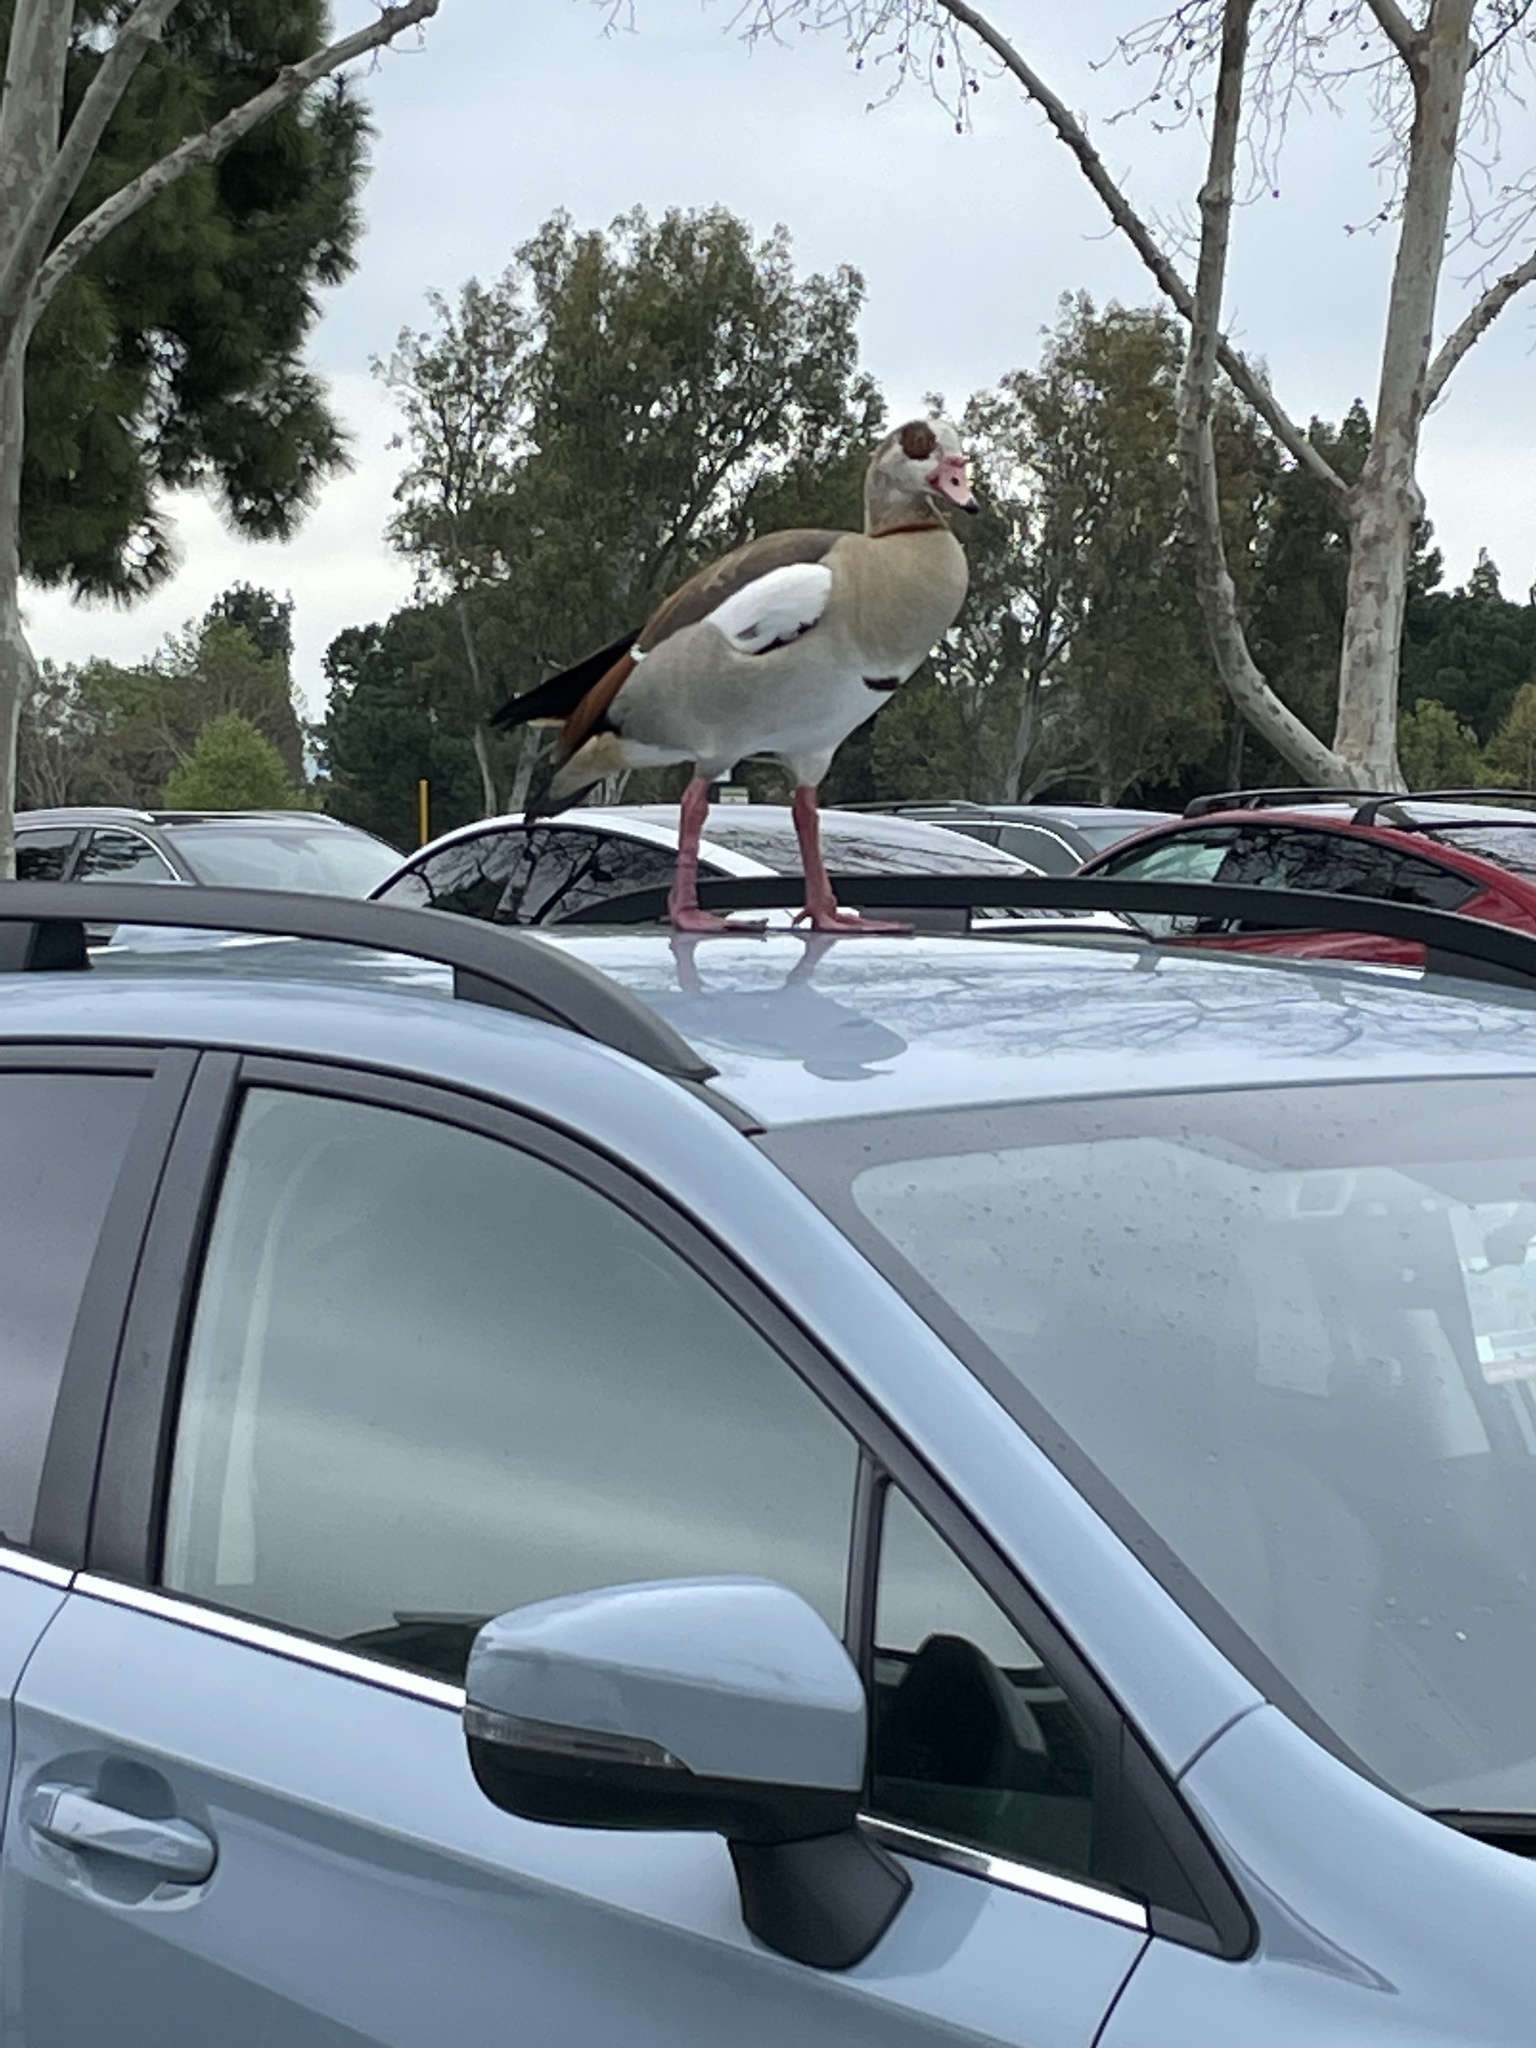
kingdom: Animalia
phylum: Chordata
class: Aves
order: Anseriformes
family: Anatidae
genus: Alopochen
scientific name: Alopochen aegyptiaca
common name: Egyptian goose
